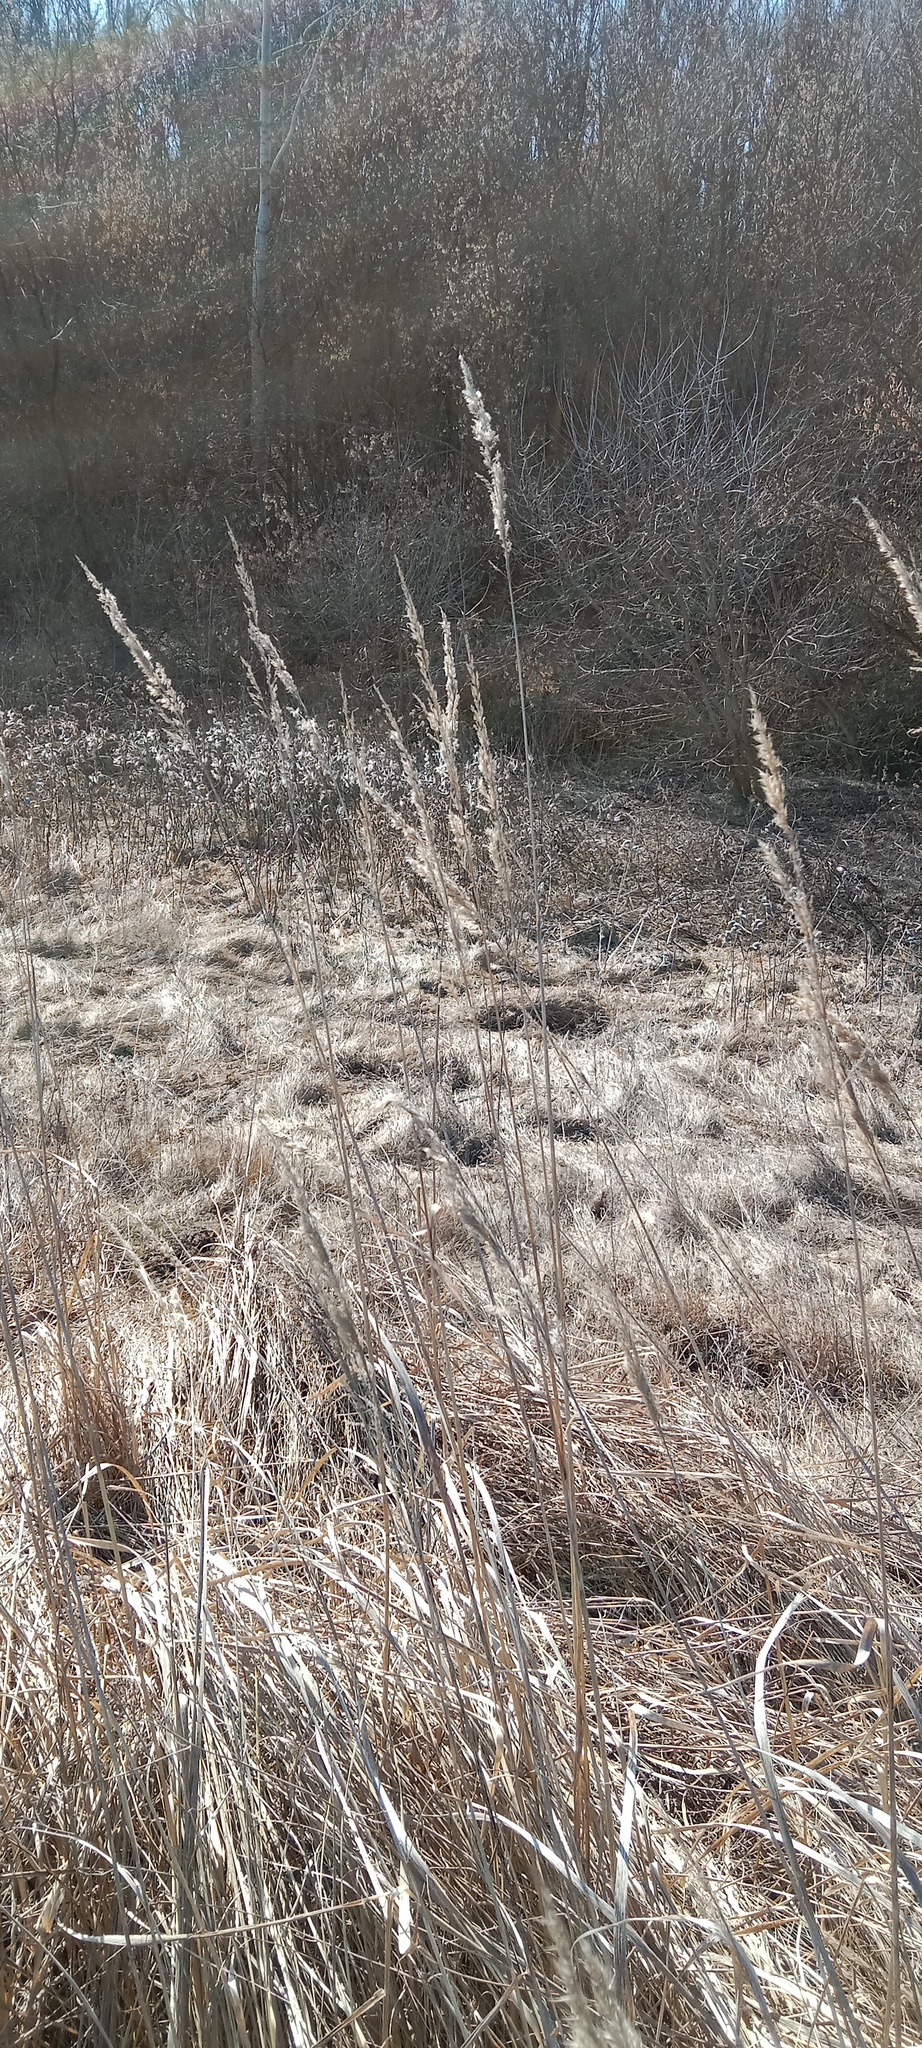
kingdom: Plantae
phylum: Tracheophyta
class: Liliopsida
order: Poales
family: Poaceae
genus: Calamagrostis
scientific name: Calamagrostis epigejos
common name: Wood small-reed
